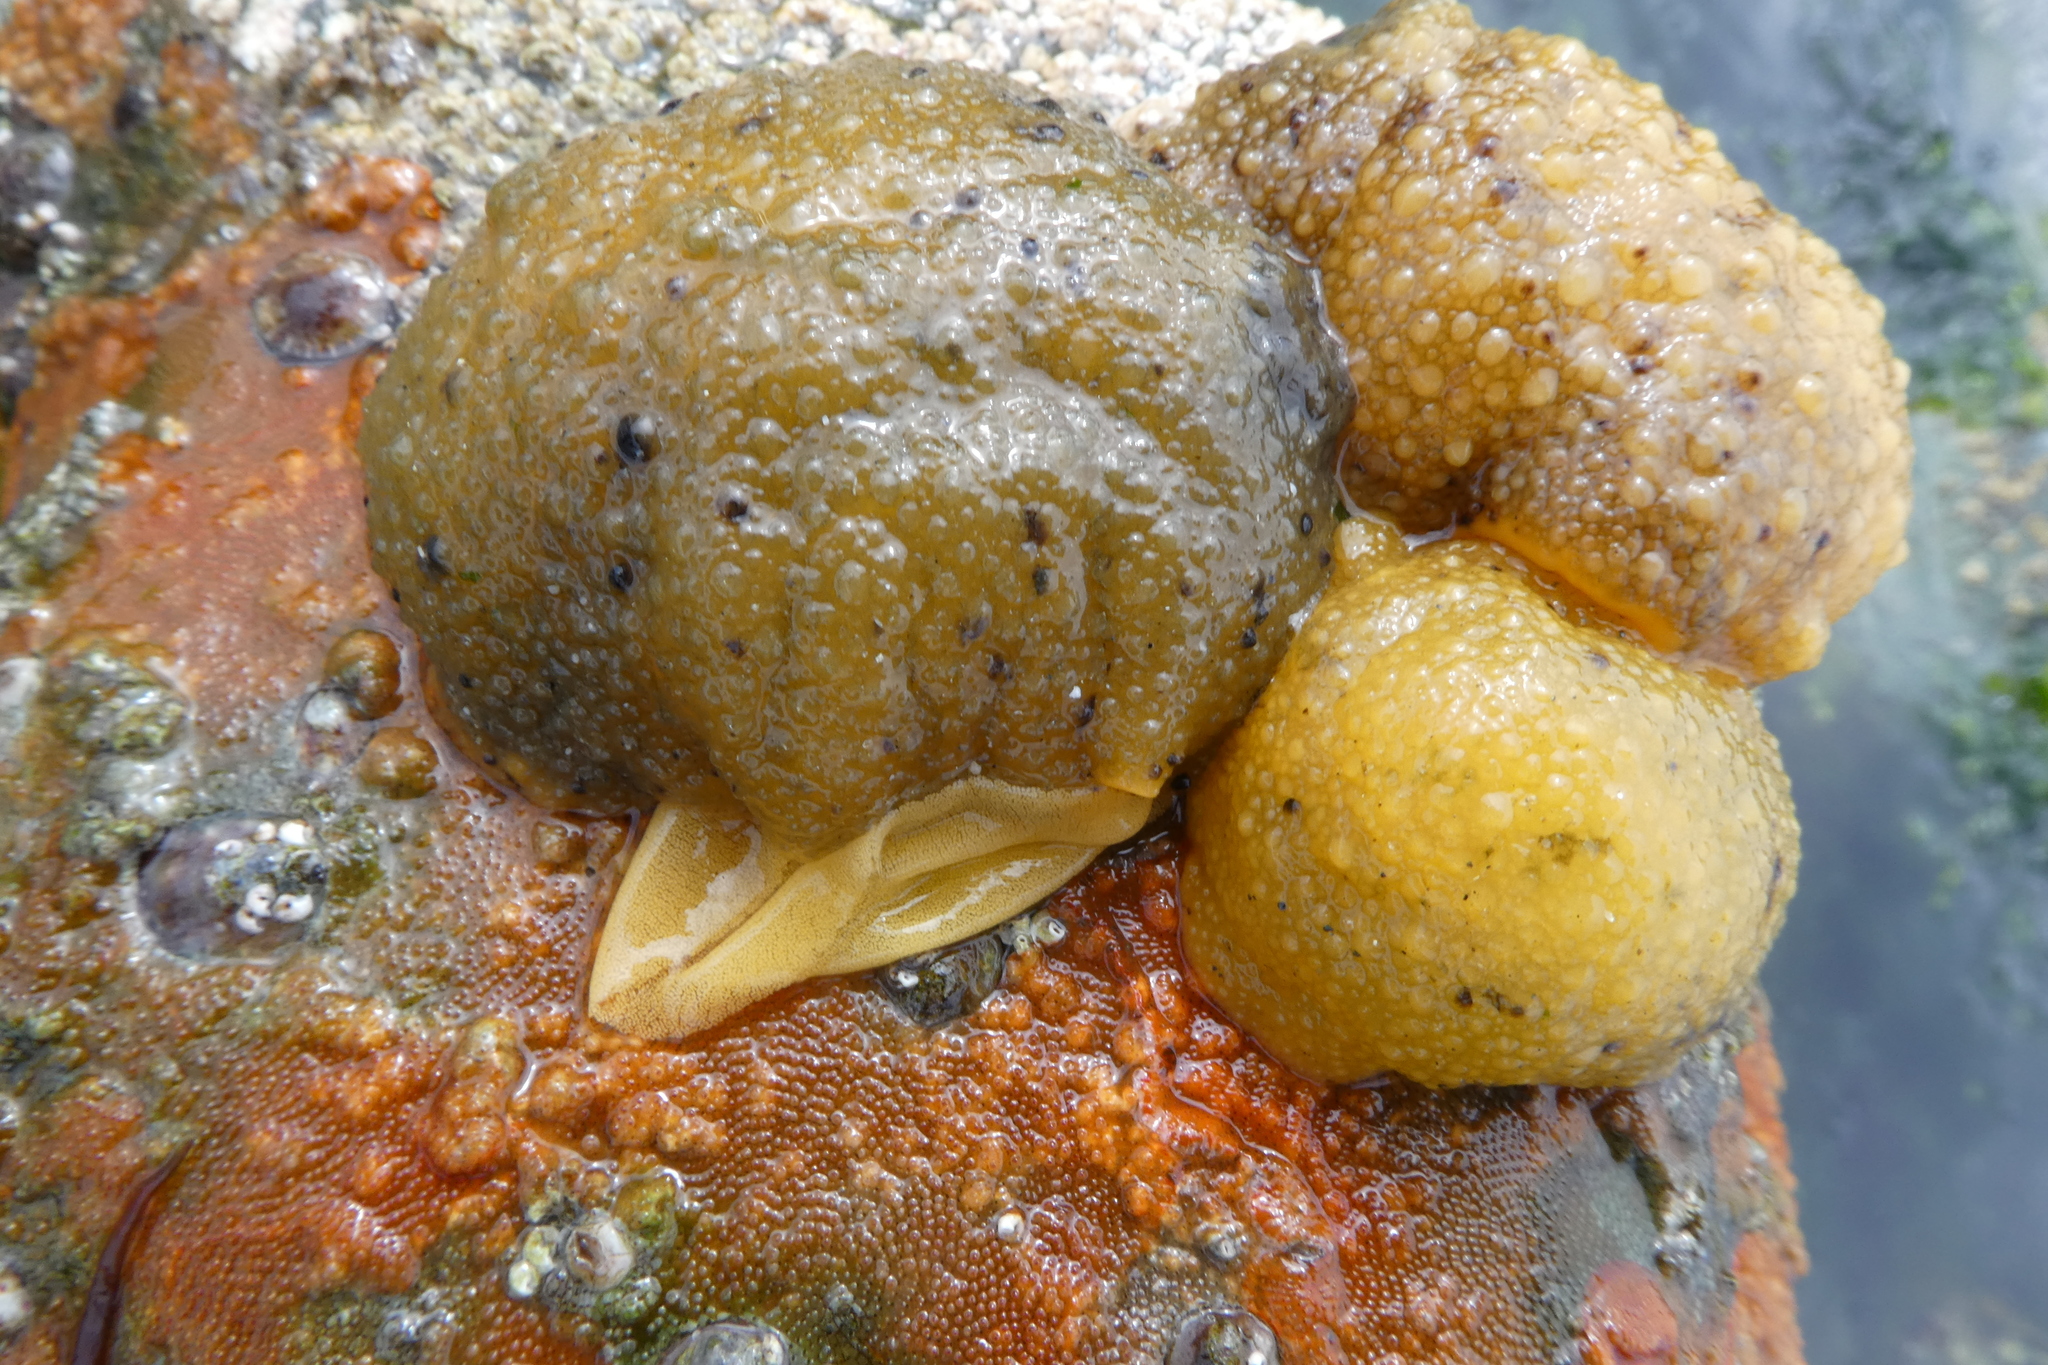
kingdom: Animalia
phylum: Mollusca
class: Gastropoda
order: Nudibranchia
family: Dorididae
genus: Doris
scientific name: Doris montereyensis
